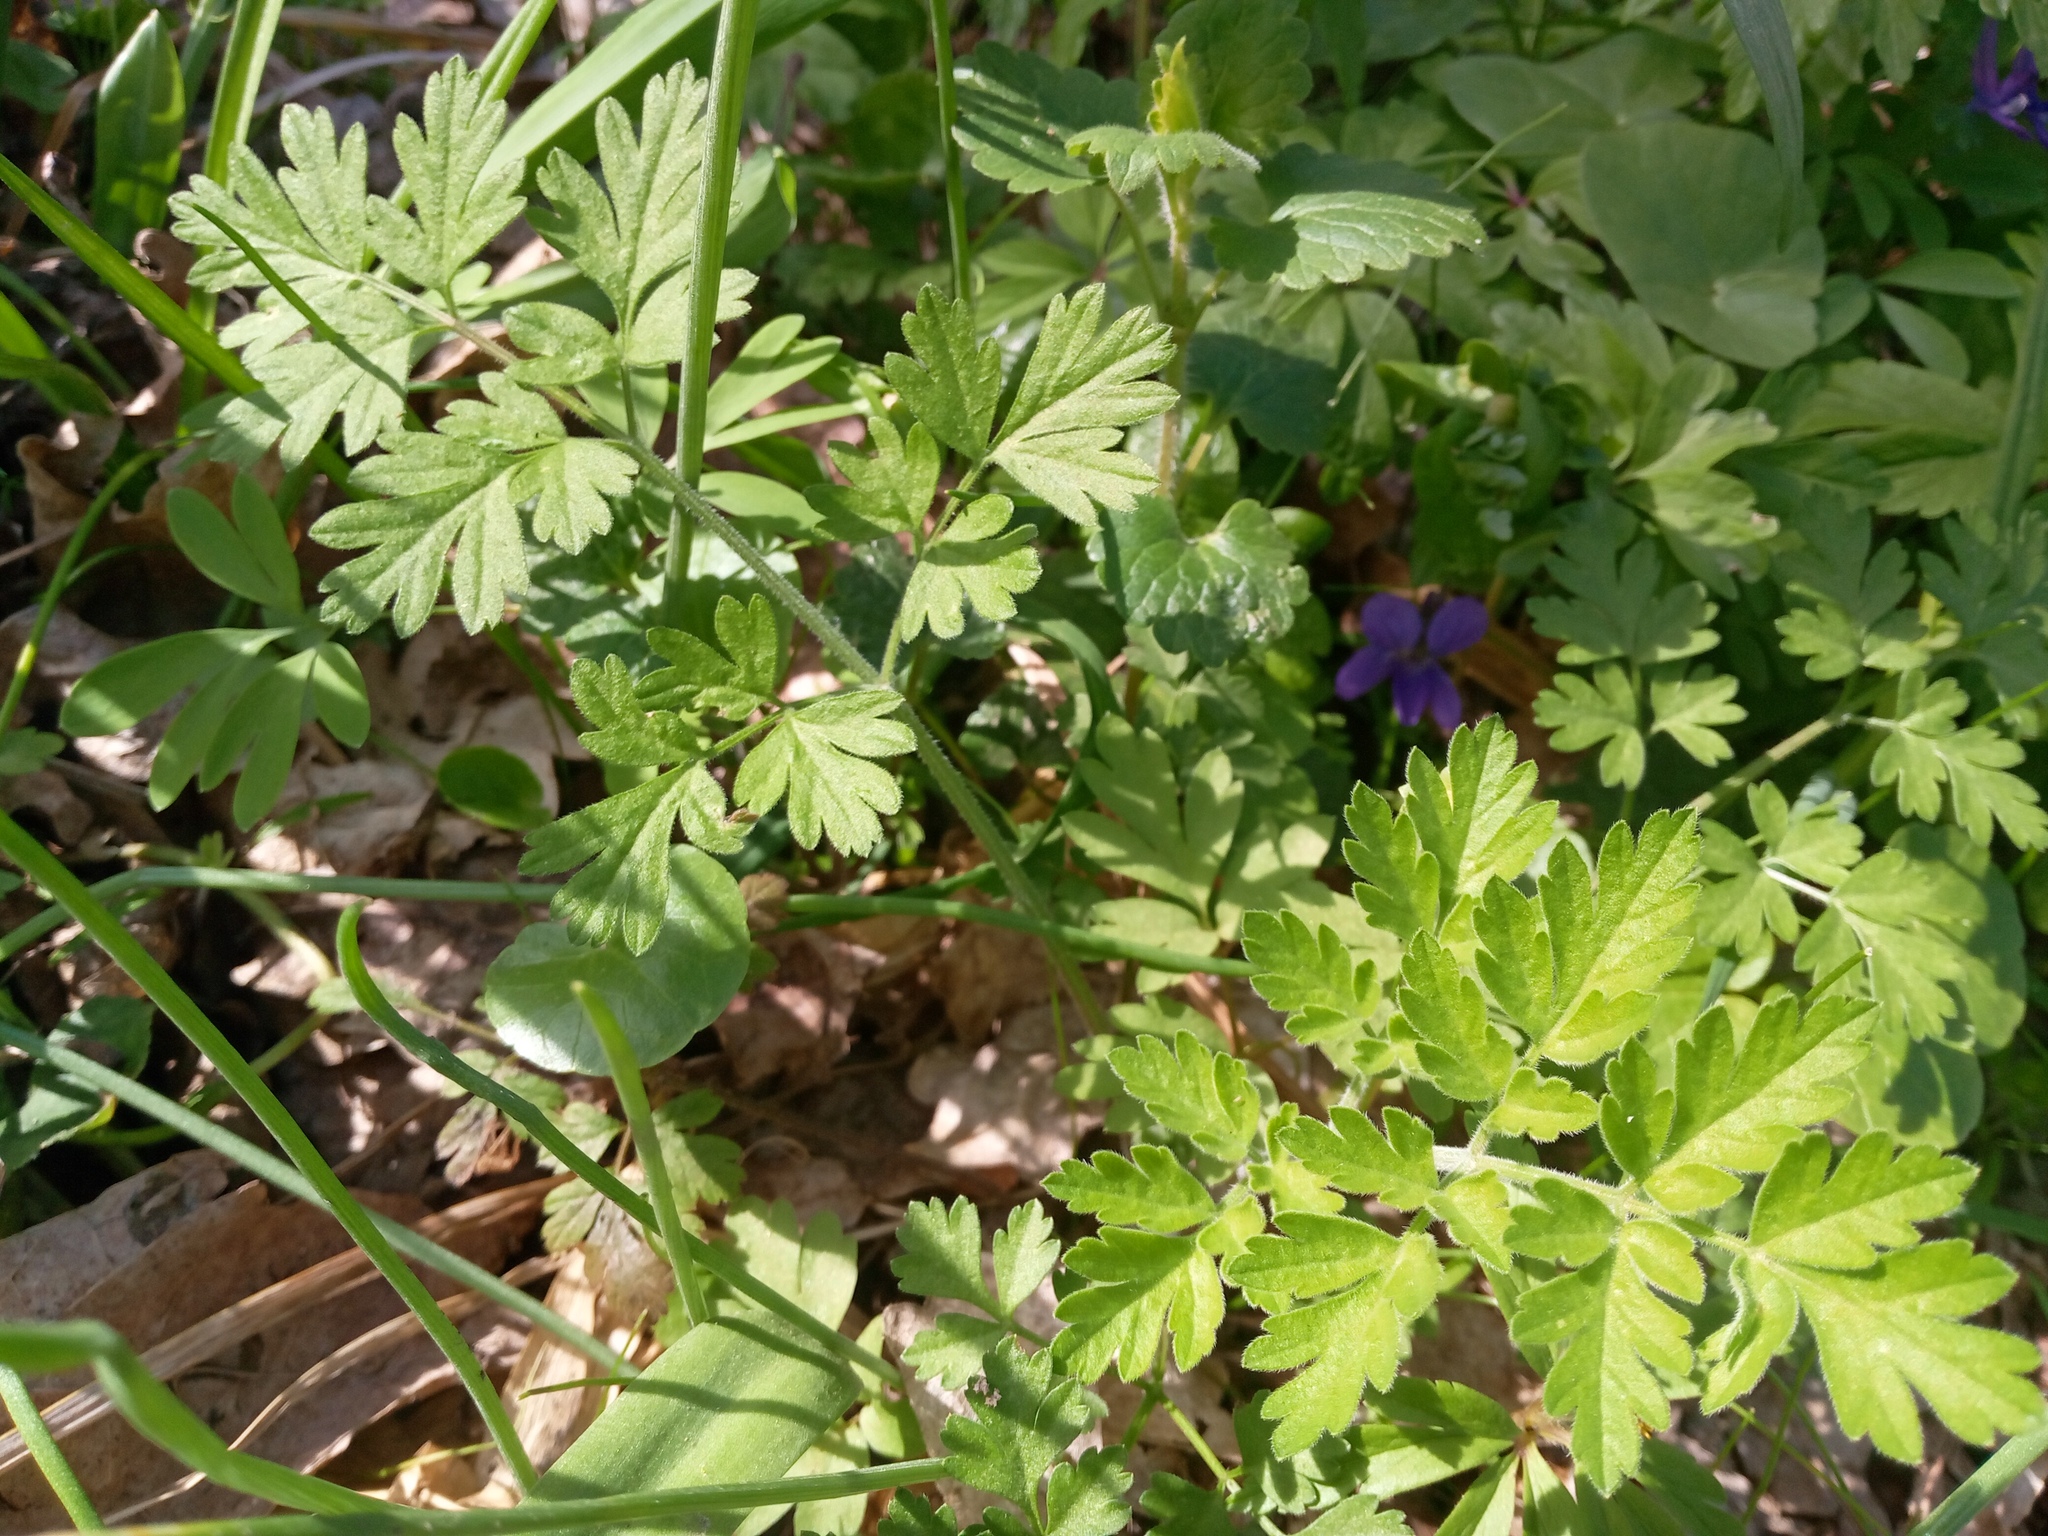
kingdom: Plantae
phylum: Tracheophyta
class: Magnoliopsida
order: Apiales
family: Apiaceae
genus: Chaerophyllum
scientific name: Chaerophyllum temulum
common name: Rough chervil
